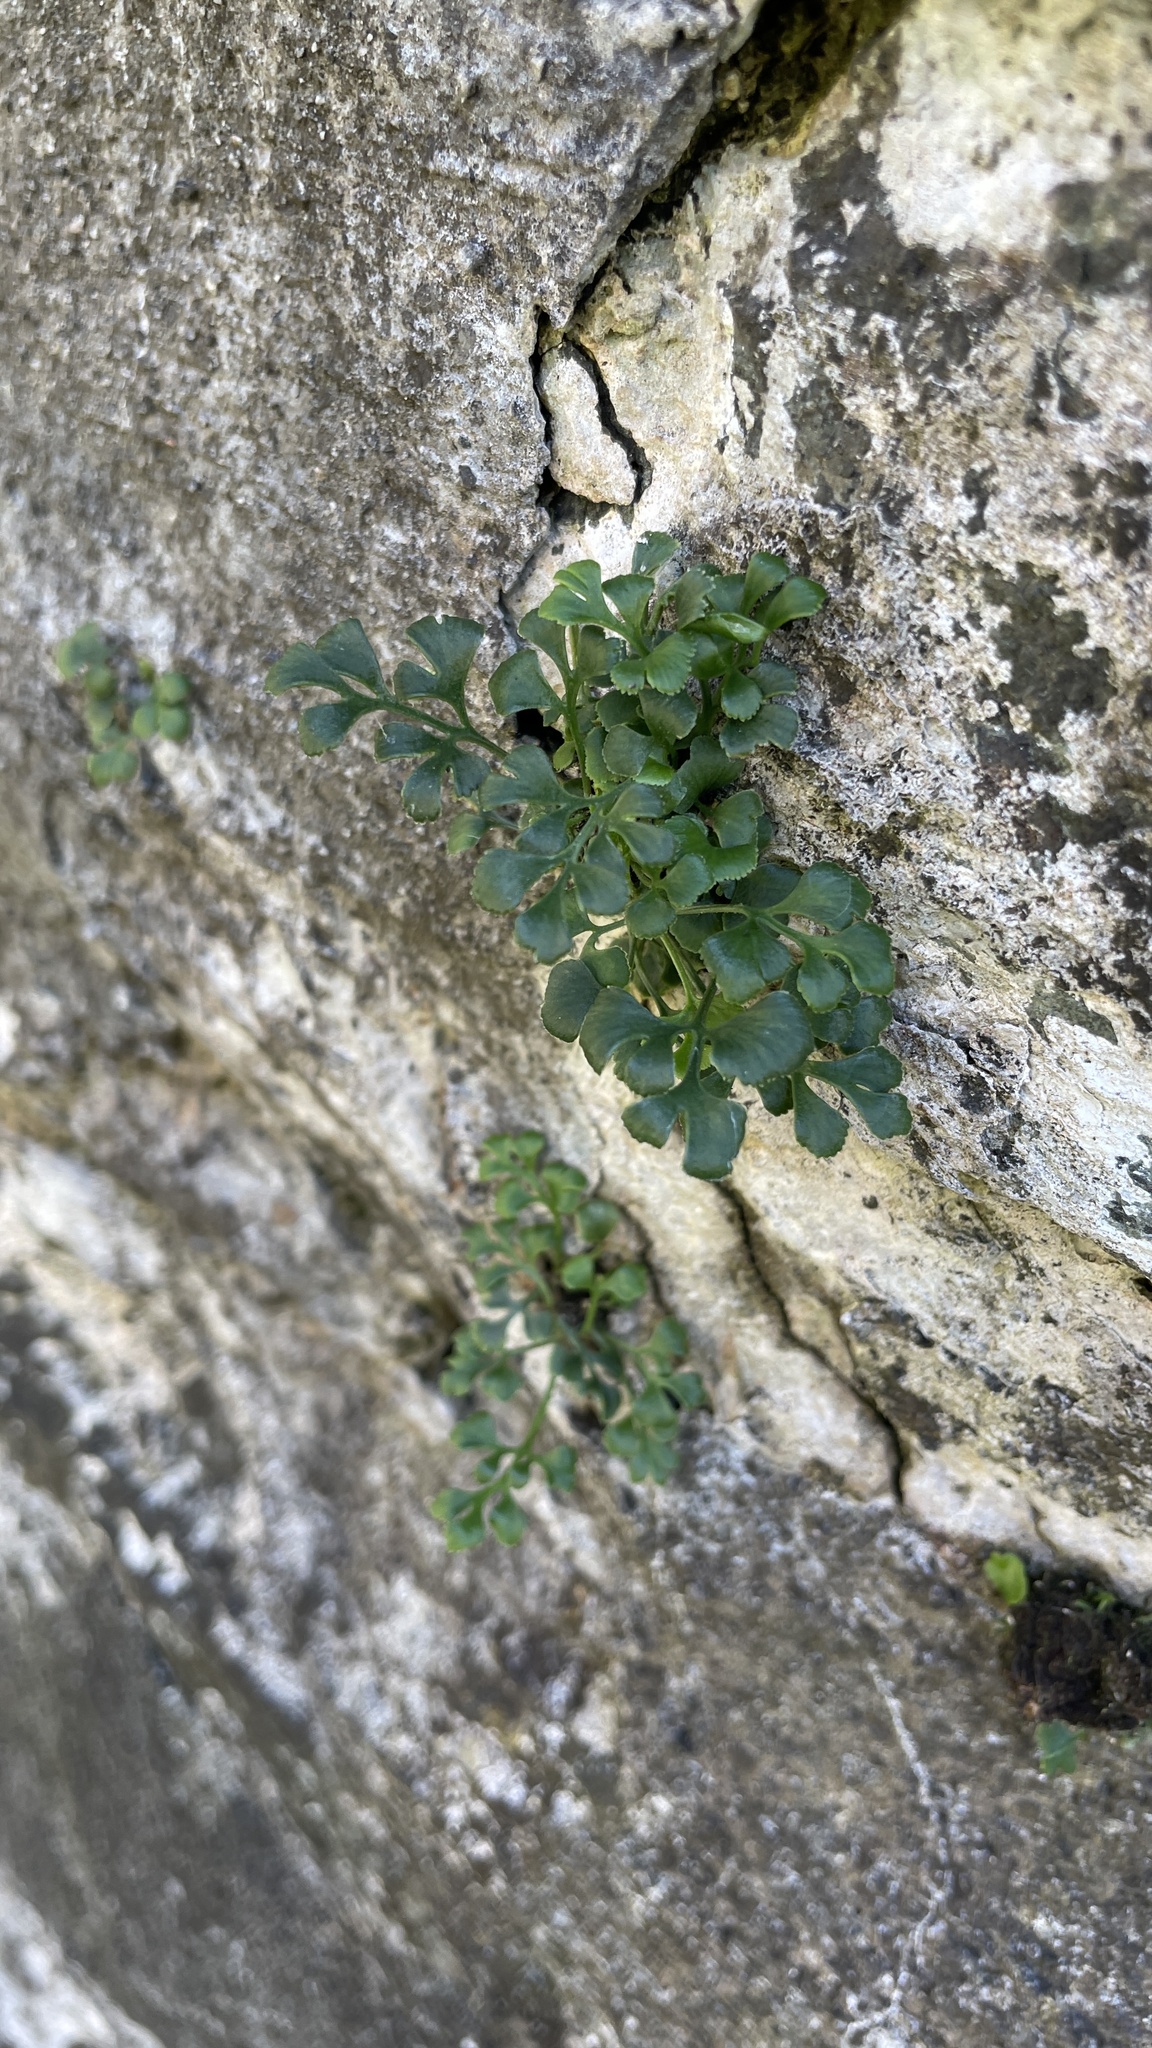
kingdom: Plantae
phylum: Tracheophyta
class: Polypodiopsida
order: Polypodiales
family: Aspleniaceae
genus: Asplenium
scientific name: Asplenium ruta-muraria
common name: Wall-rue
